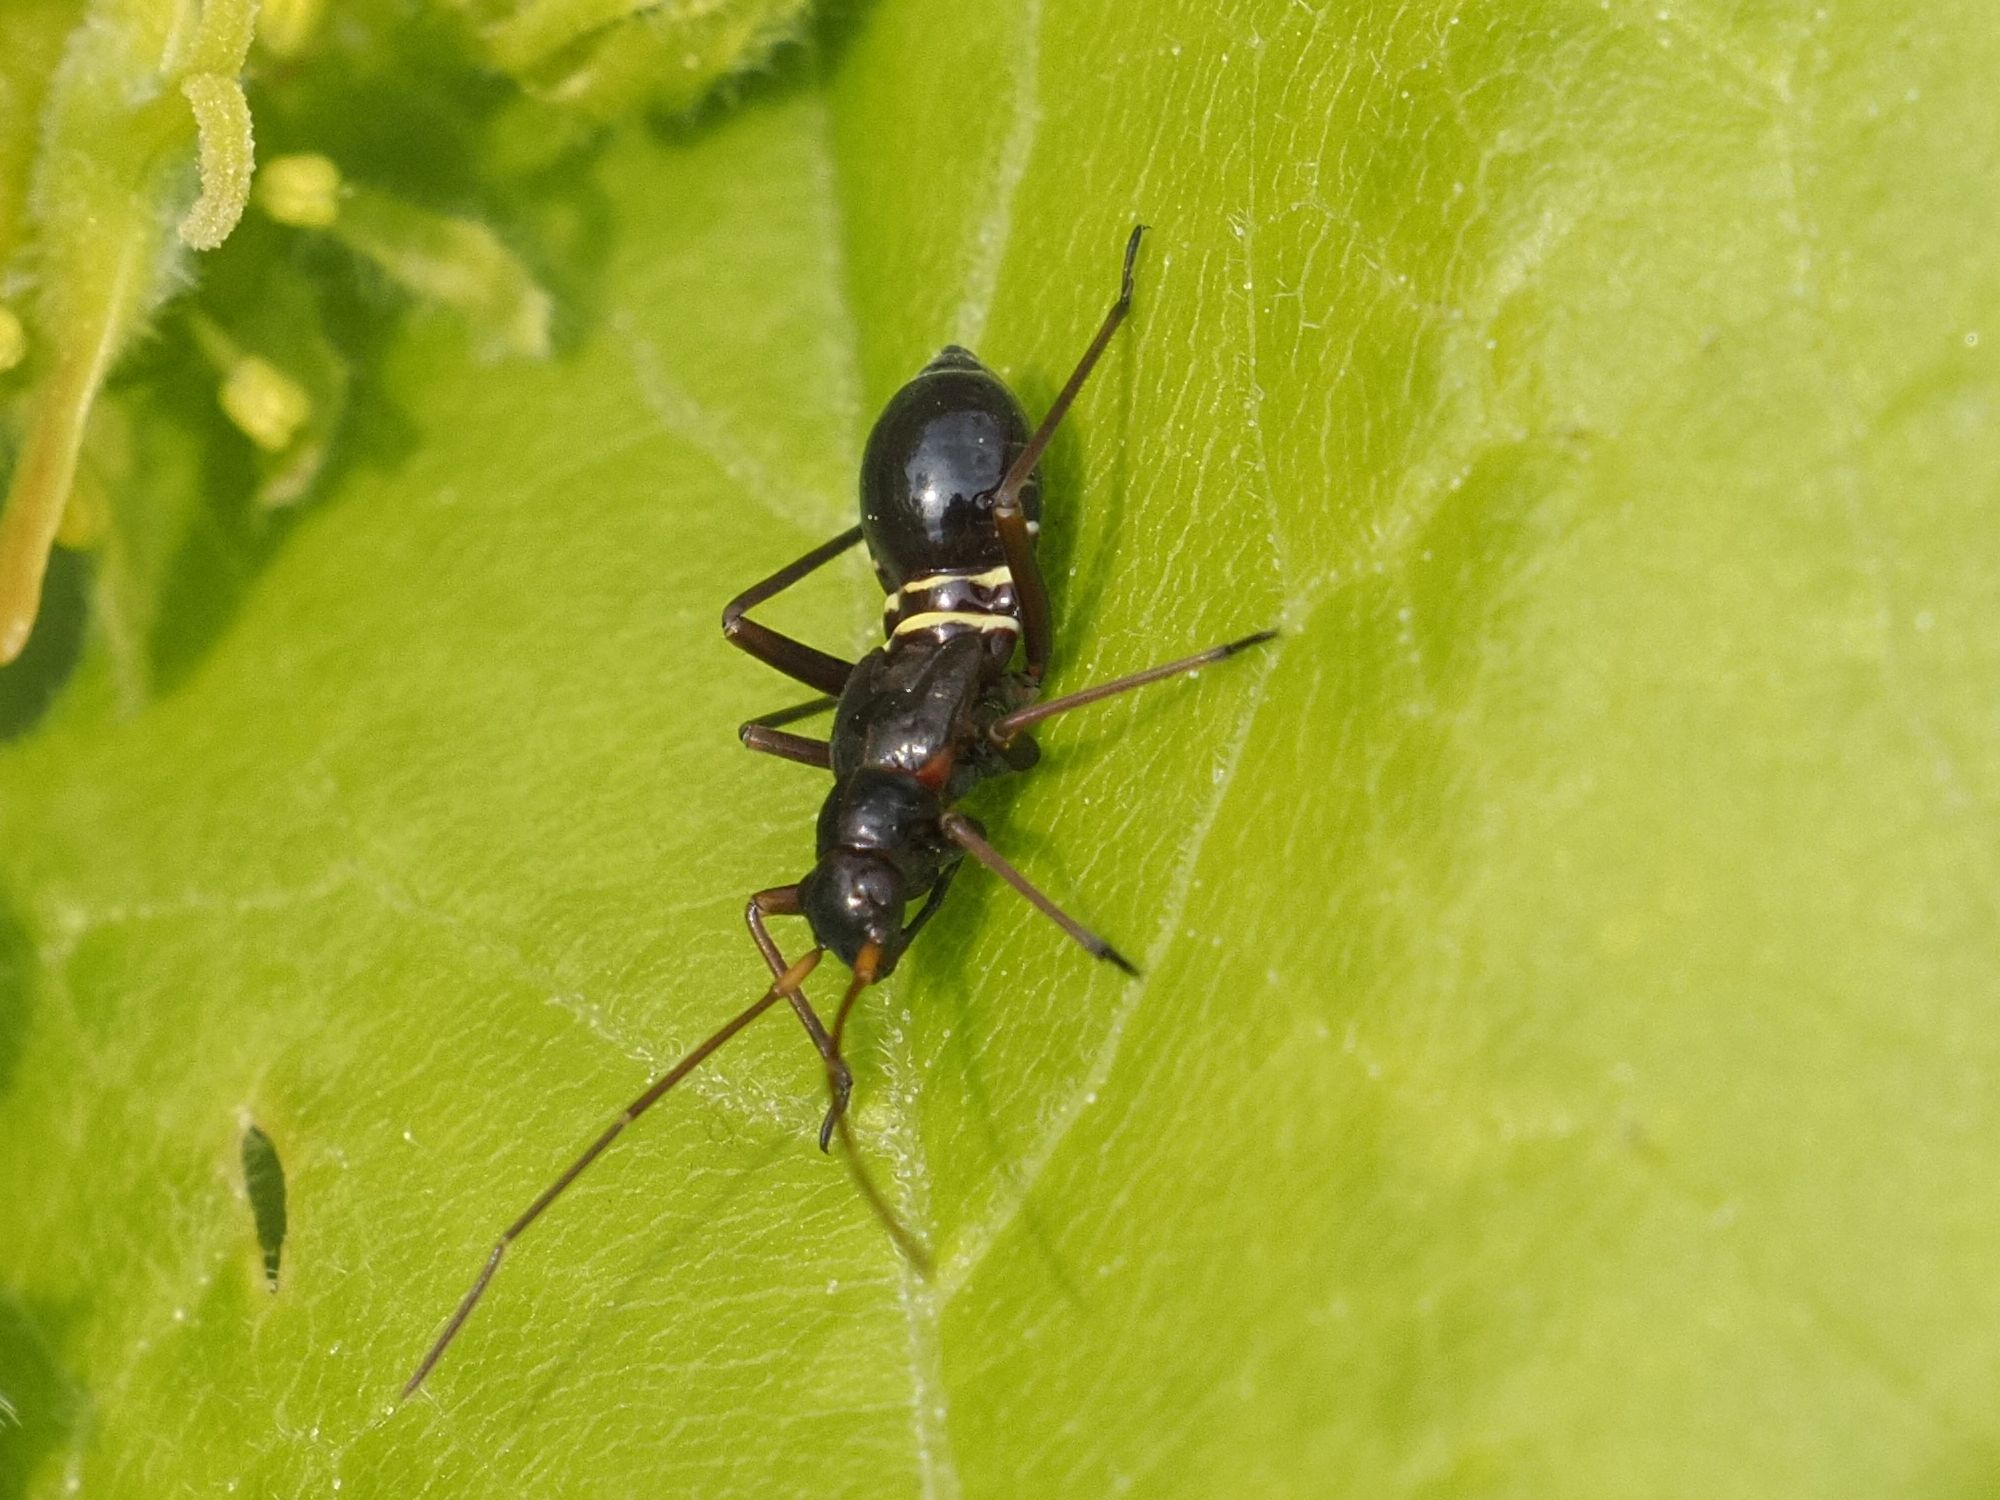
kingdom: Animalia
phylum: Arthropoda
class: Insecta
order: Hemiptera
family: Miridae
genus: Miris
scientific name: Miris striatus
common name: Fine streaked bugkin
